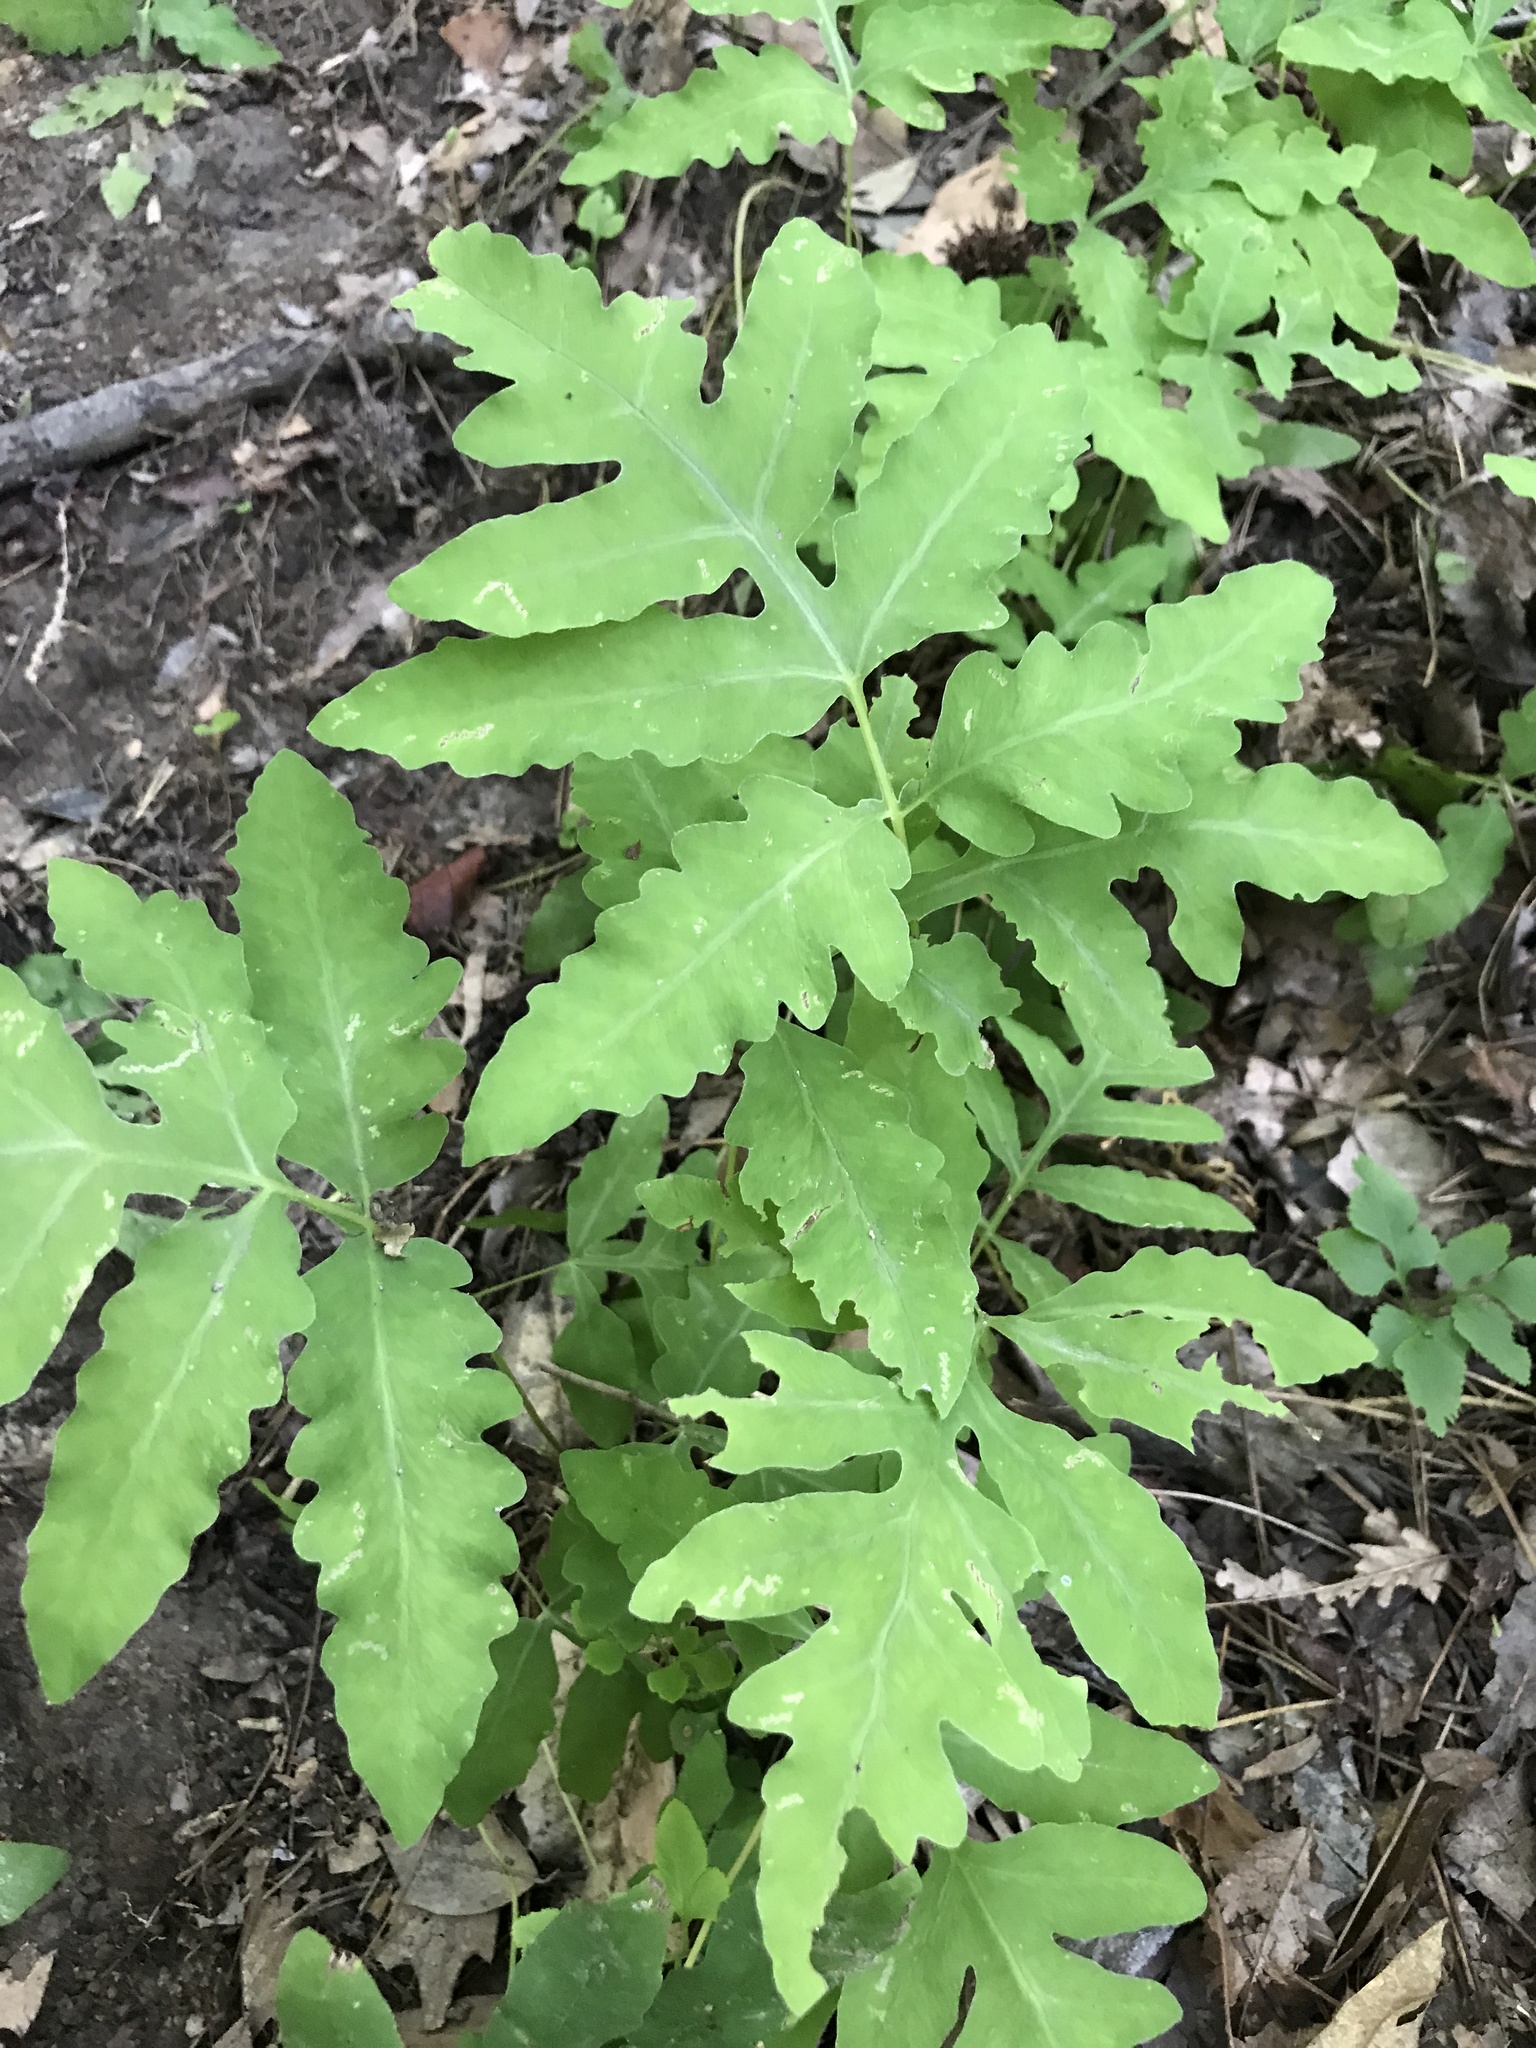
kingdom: Plantae
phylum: Tracheophyta
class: Polypodiopsida
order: Polypodiales
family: Onocleaceae
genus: Onoclea
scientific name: Onoclea sensibilis
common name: Sensitive fern
